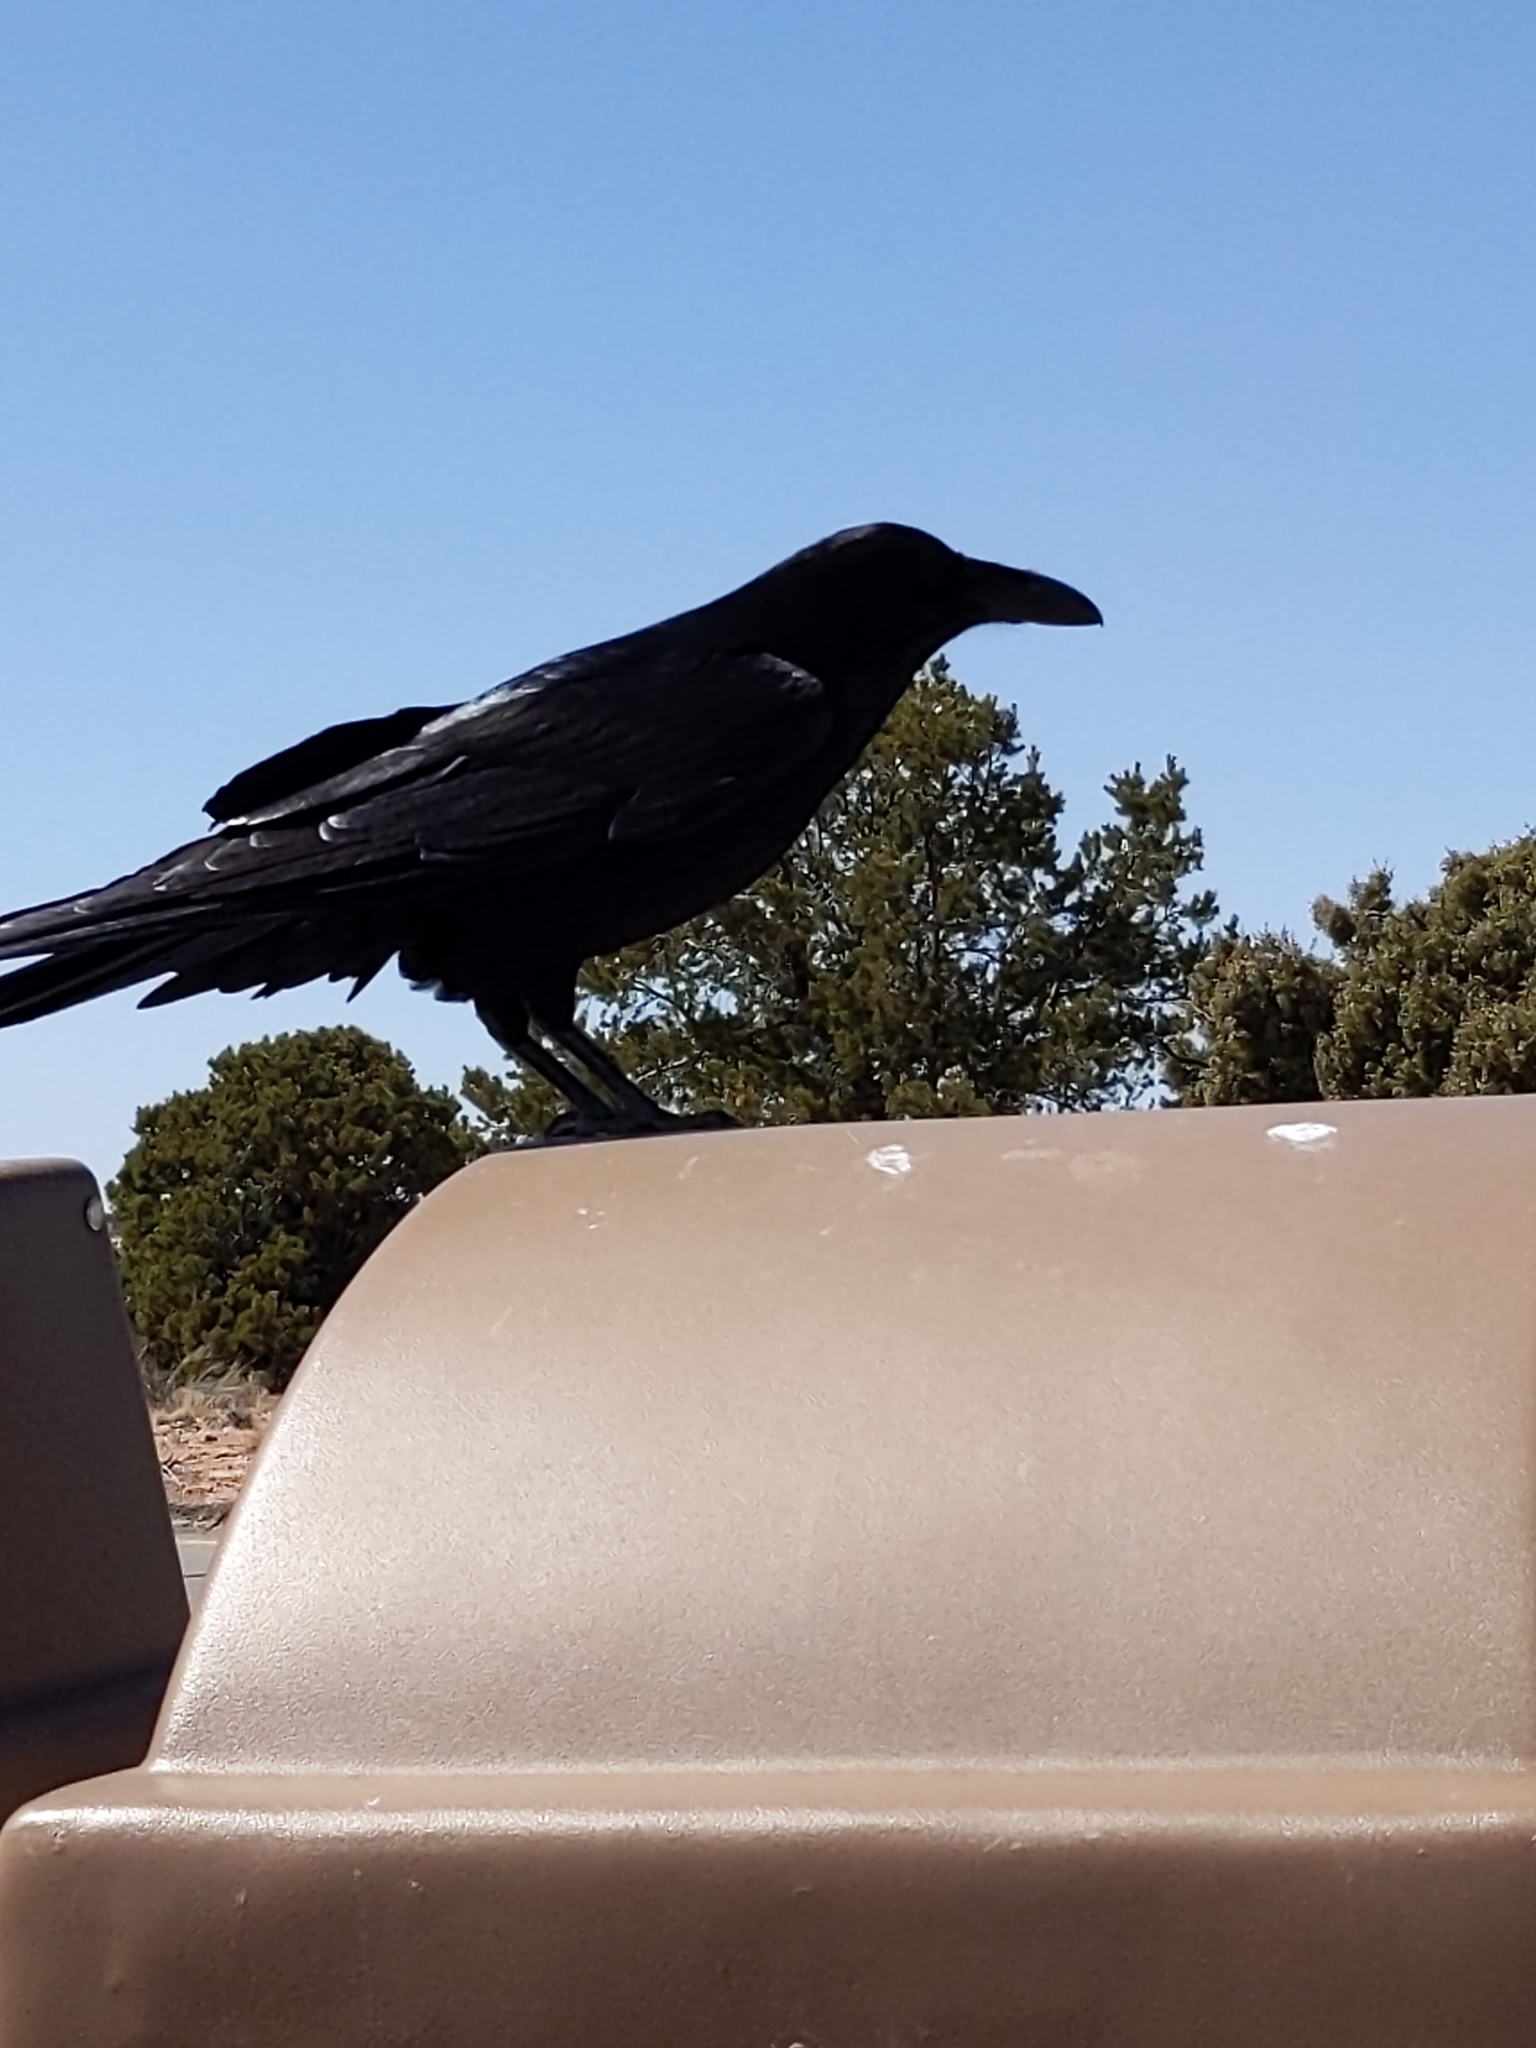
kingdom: Animalia
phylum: Chordata
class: Aves
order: Passeriformes
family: Corvidae
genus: Corvus
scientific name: Corvus corax
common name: Common raven
